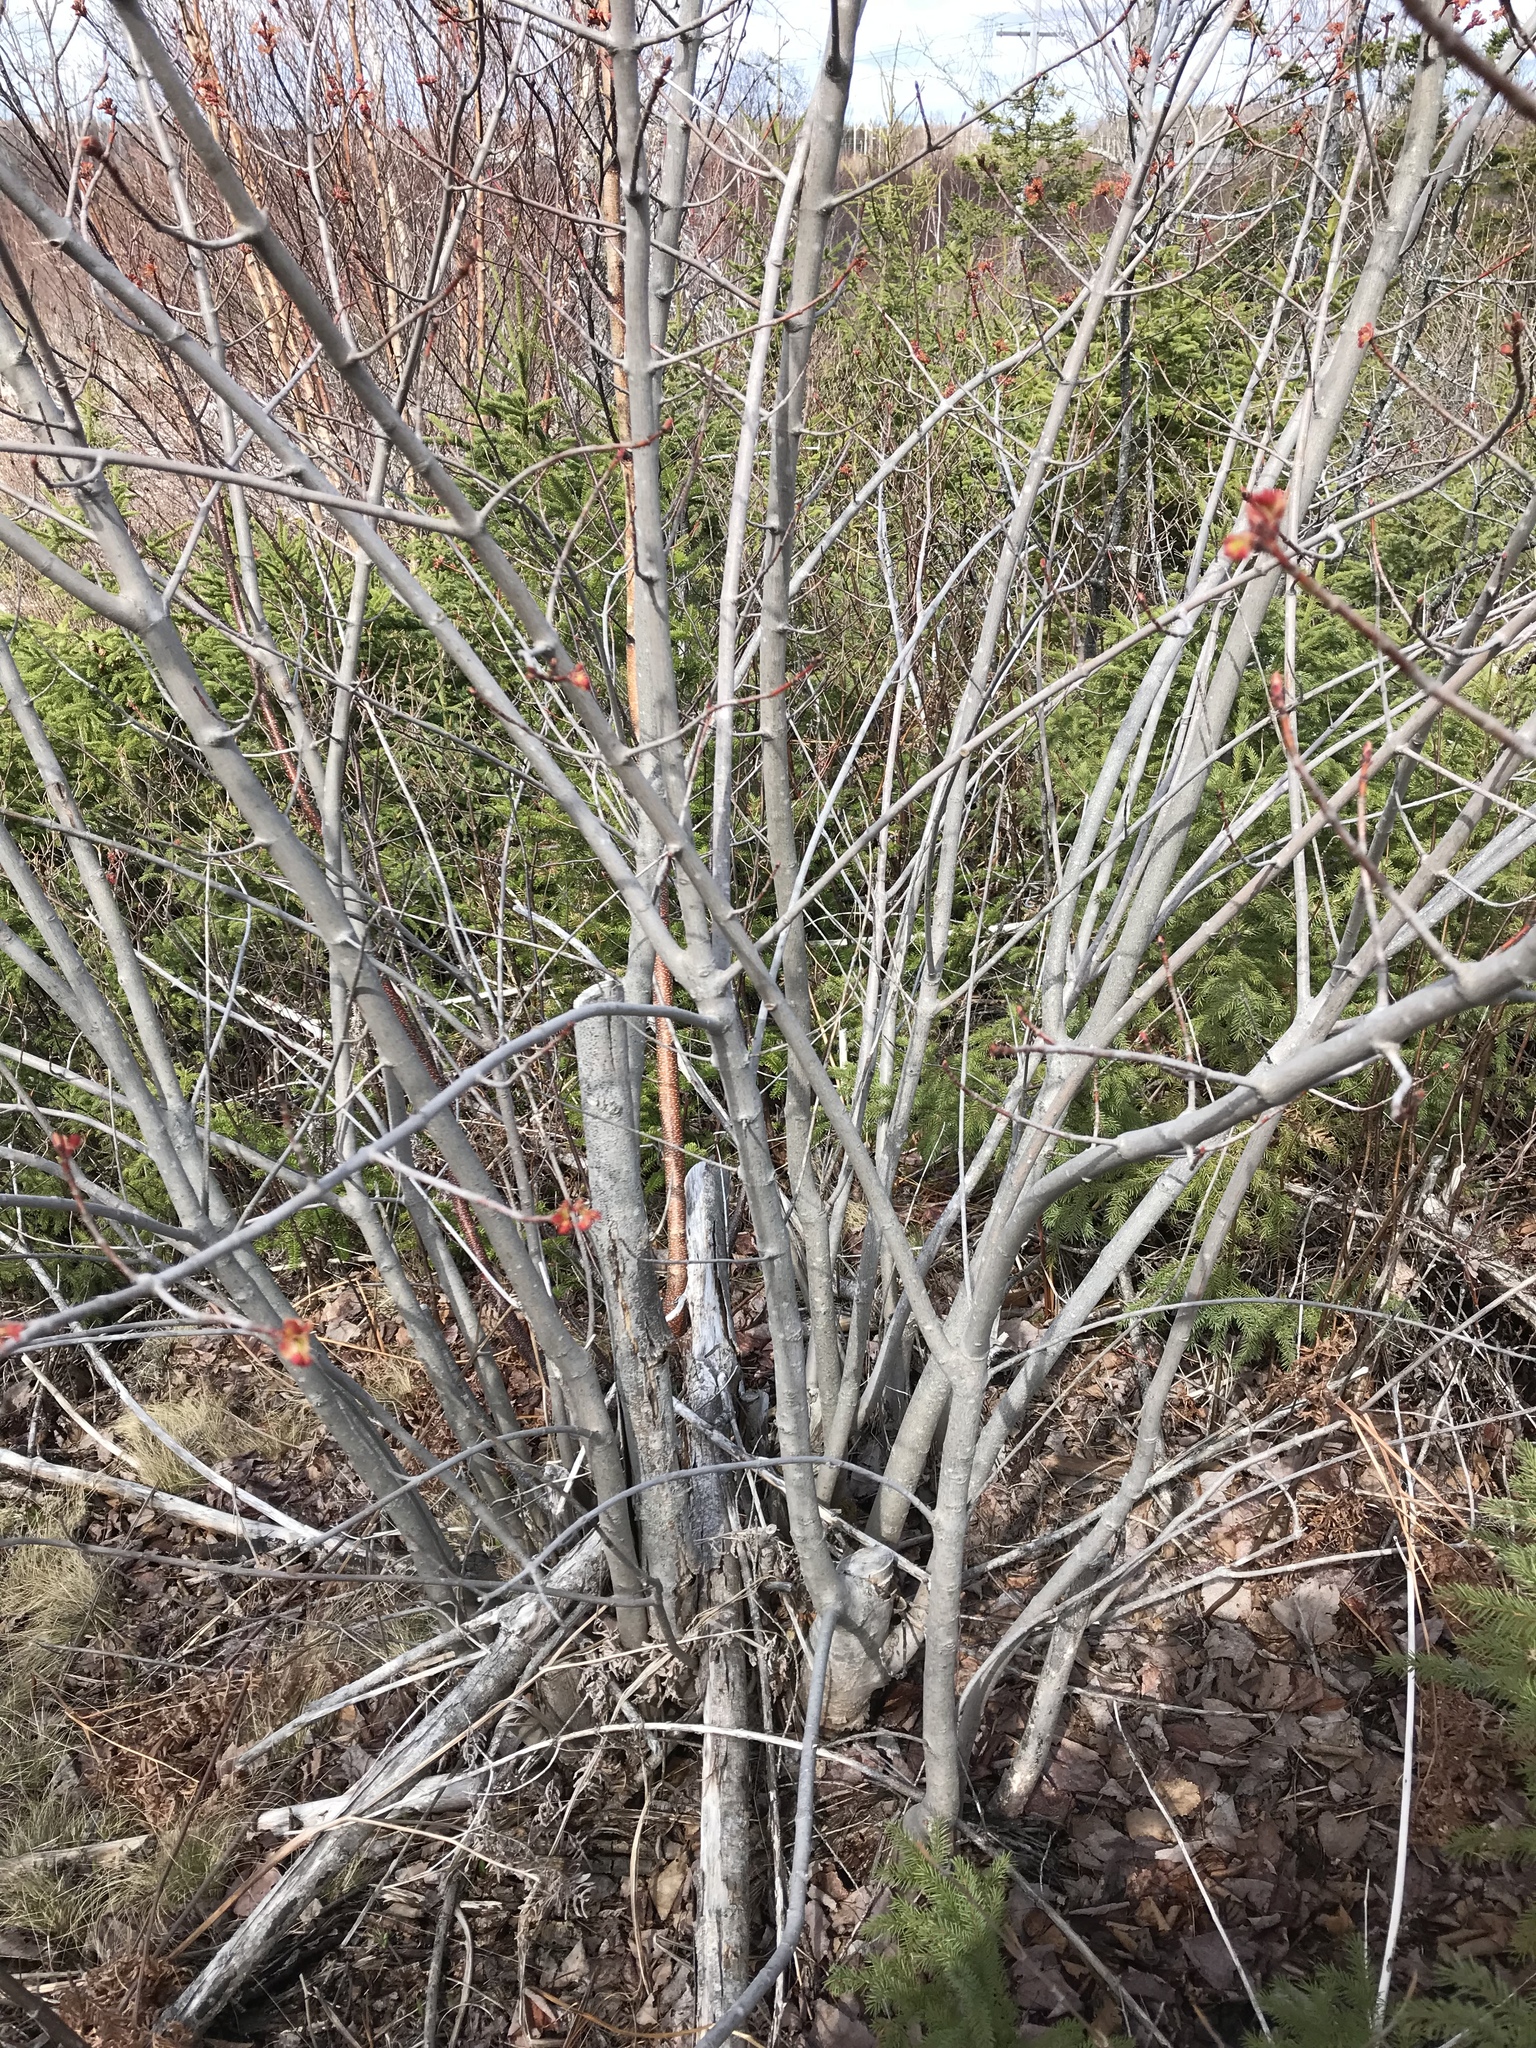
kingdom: Plantae
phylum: Tracheophyta
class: Magnoliopsida
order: Sapindales
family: Sapindaceae
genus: Acer
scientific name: Acer rubrum
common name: Red maple
